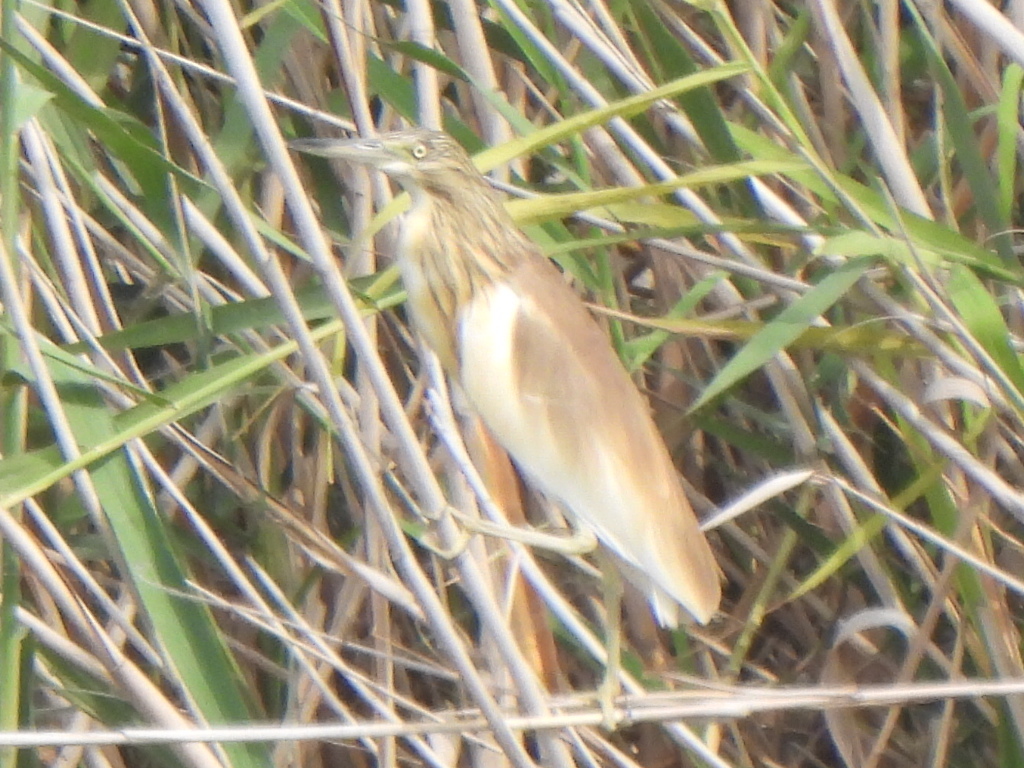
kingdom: Animalia
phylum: Chordata
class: Aves
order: Pelecaniformes
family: Ardeidae
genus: Ardeola
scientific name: Ardeola ralloides
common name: Squacco heron
